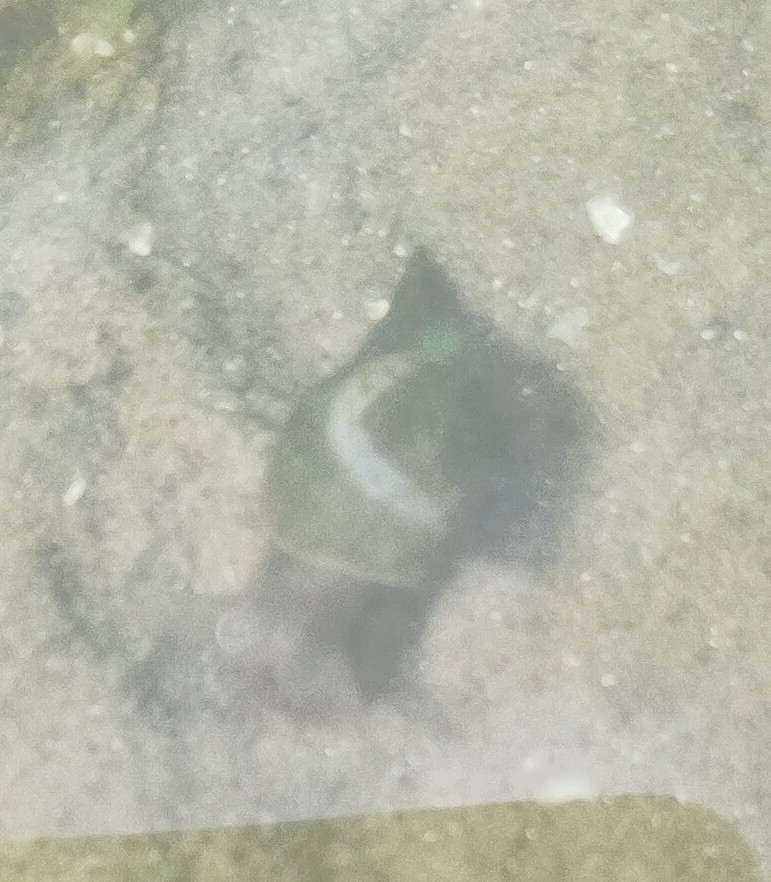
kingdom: Animalia
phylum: Mollusca
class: Gastropoda
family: Lymnaeidae
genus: Lymnaea
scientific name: Lymnaea stagnalis
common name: Great pond snail
